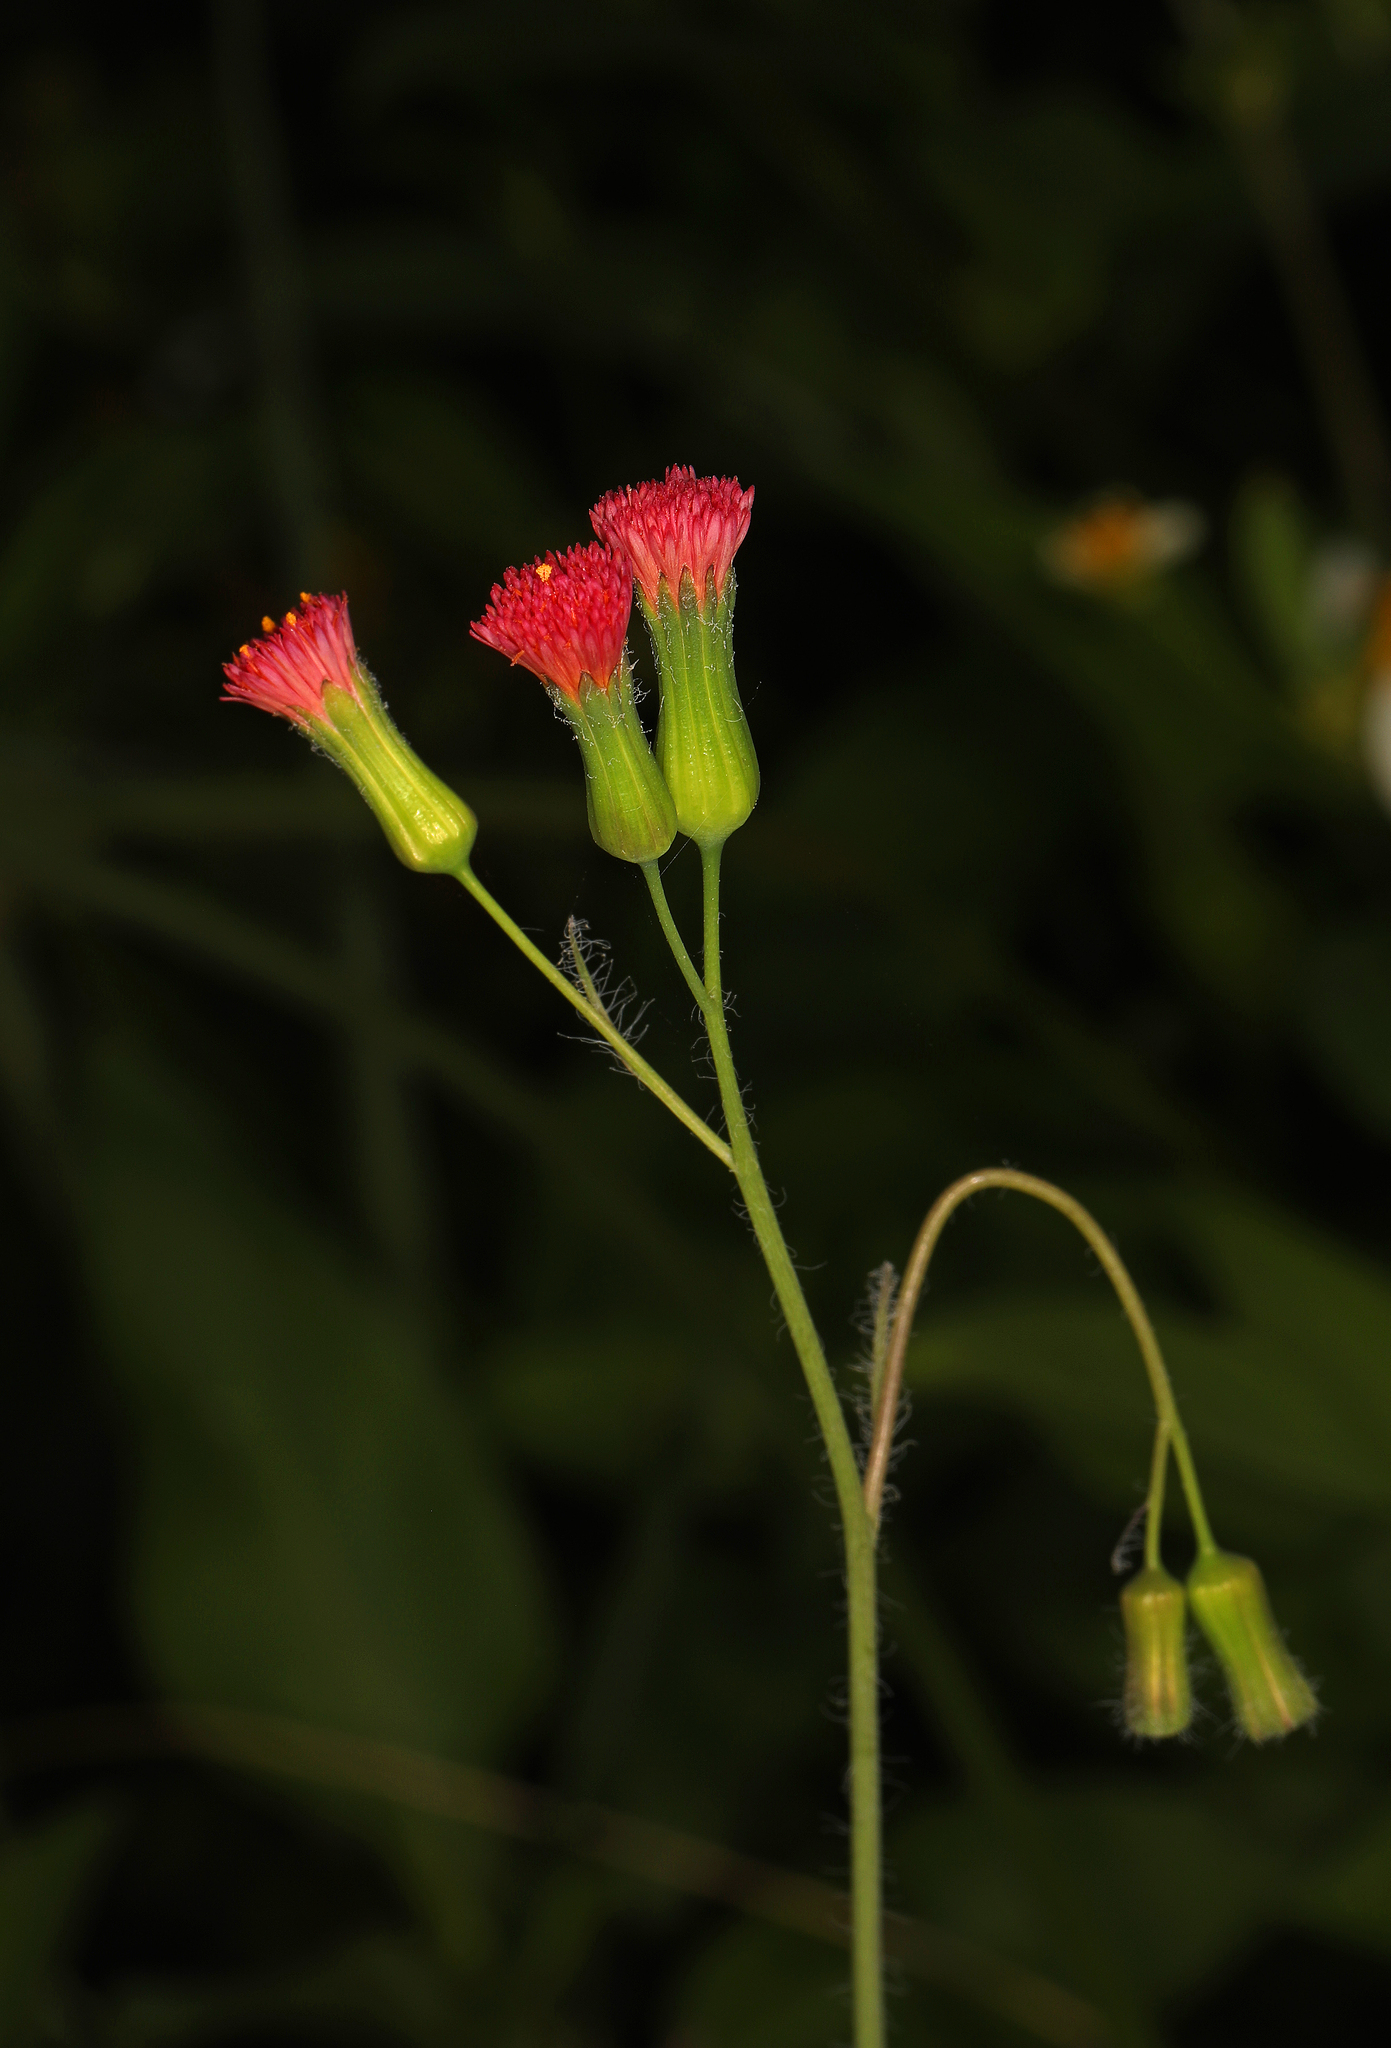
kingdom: Plantae
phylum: Tracheophyta
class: Magnoliopsida
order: Asterales
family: Asteraceae
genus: Emilia
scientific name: Emilia fosbergii
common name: Florida tasselflower
